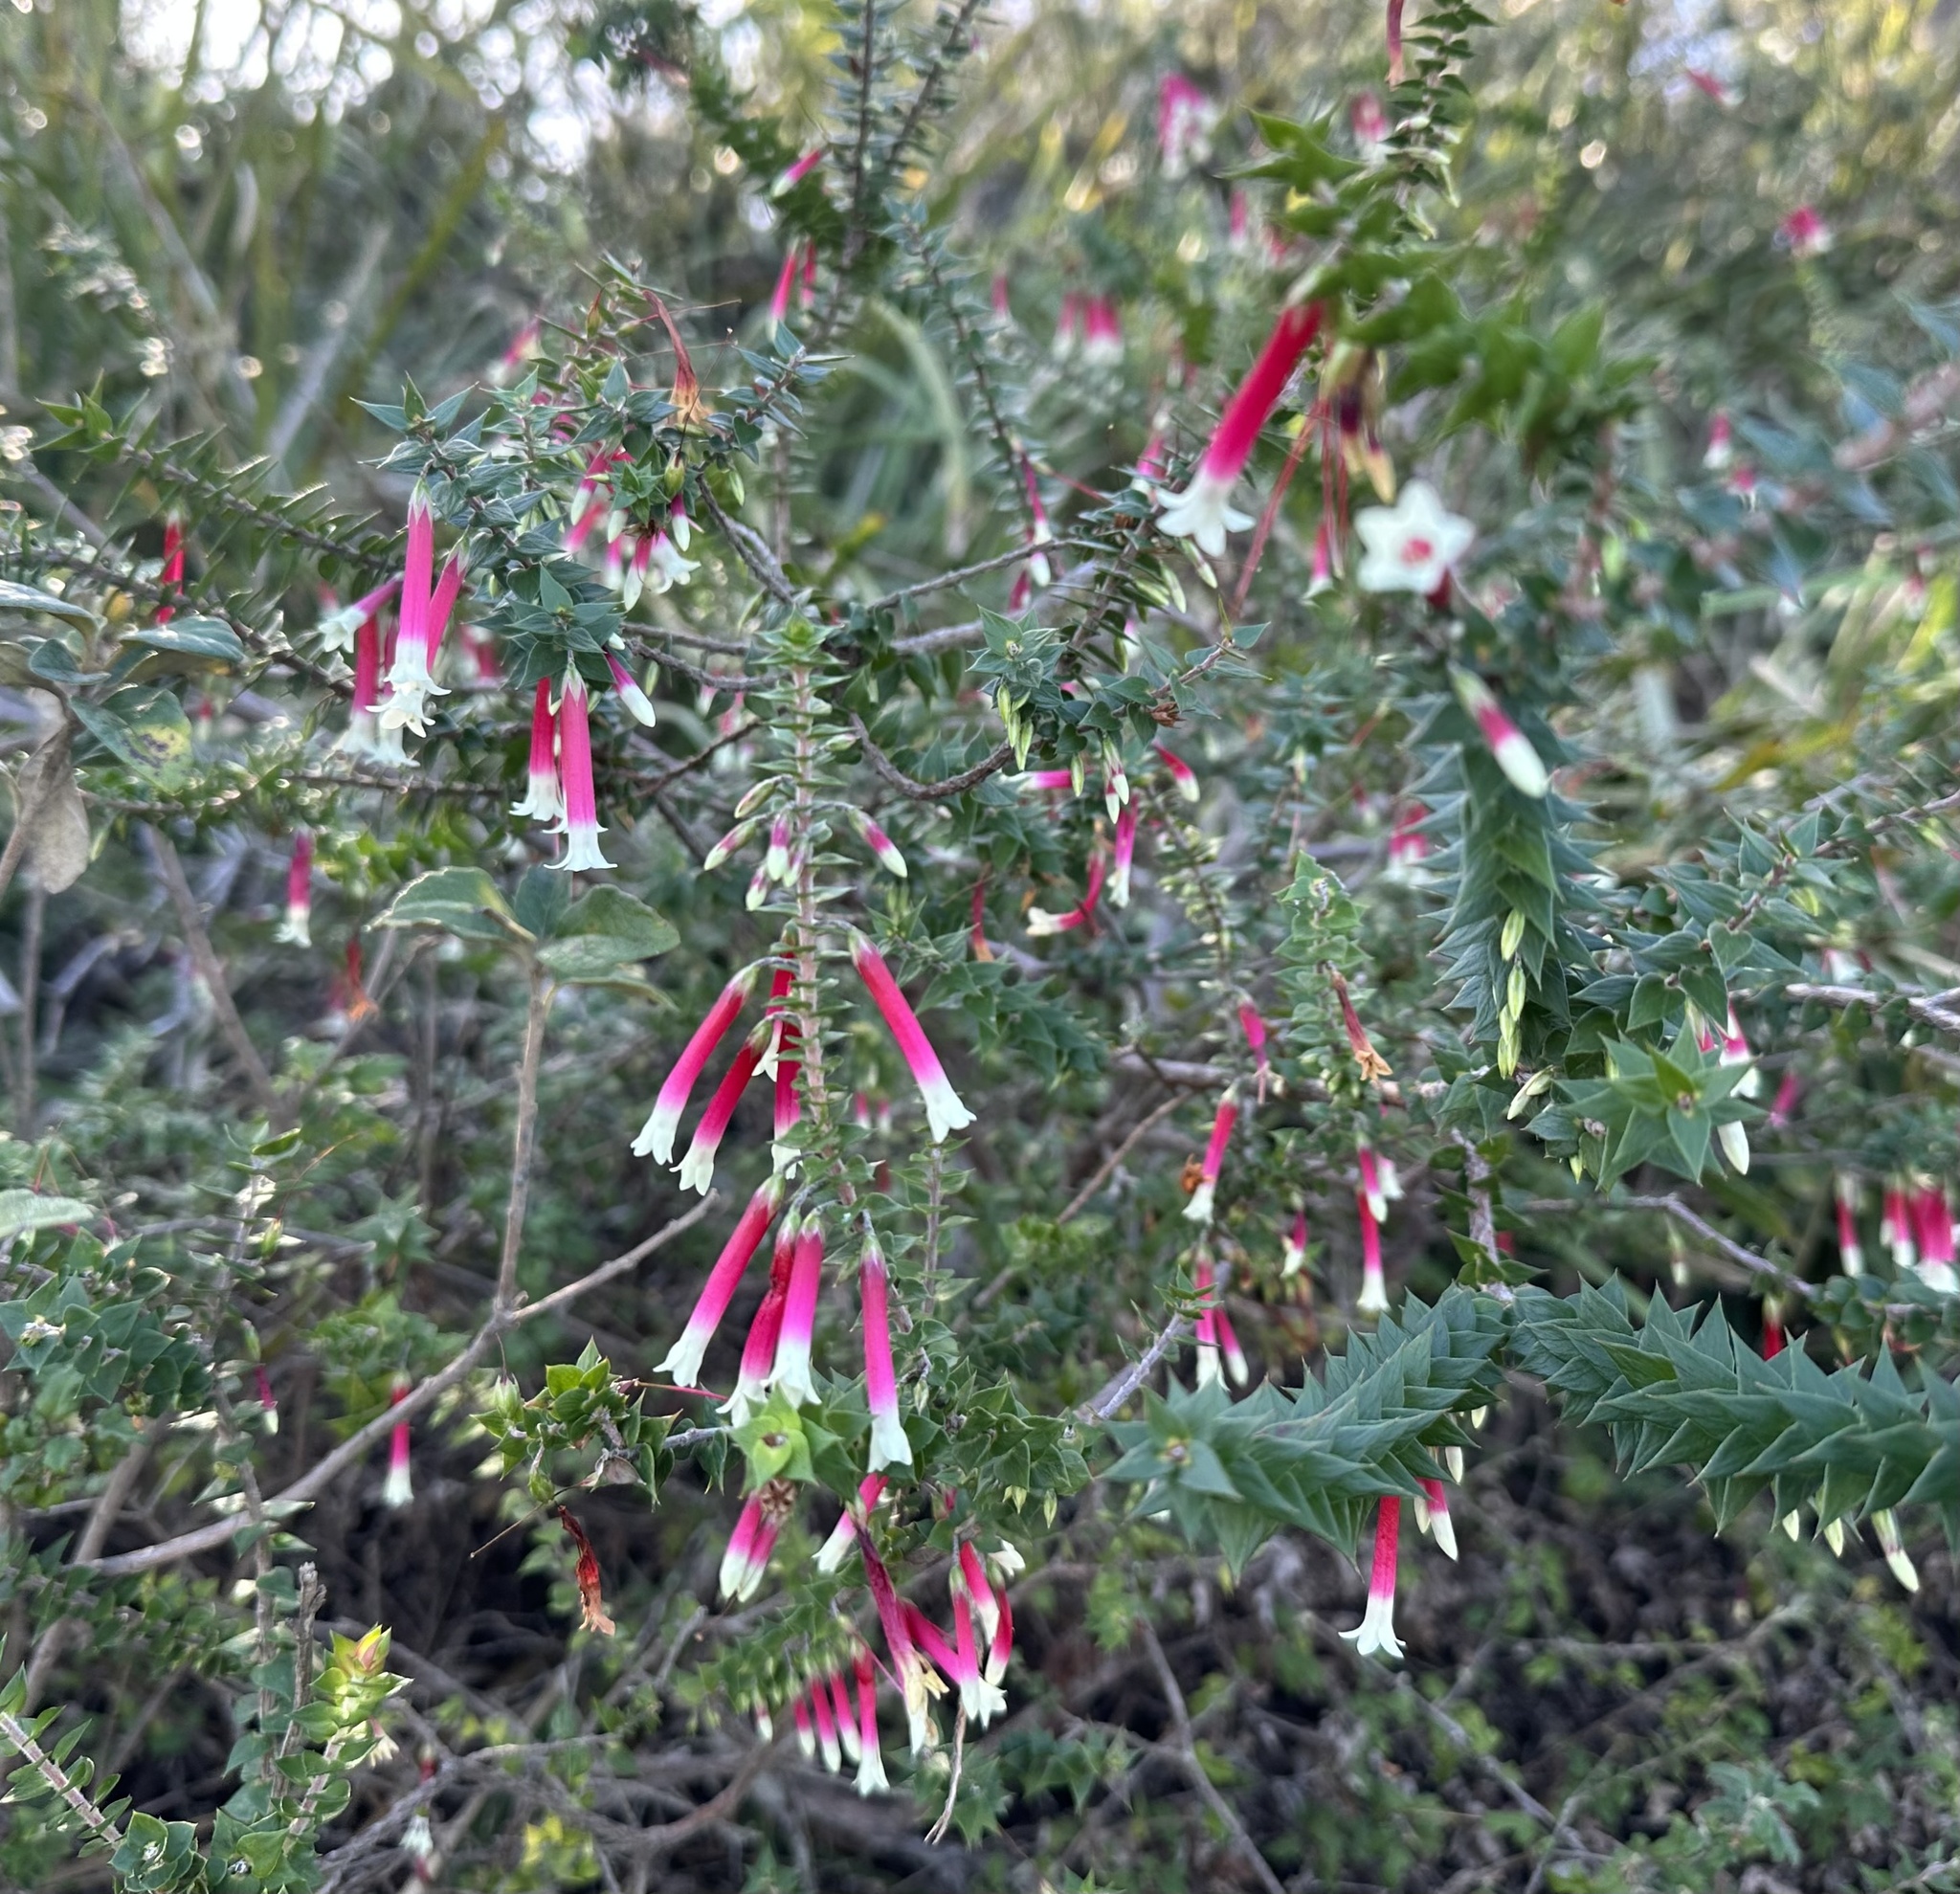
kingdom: Plantae
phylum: Tracheophyta
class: Magnoliopsida
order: Ericales
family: Ericaceae
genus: Epacris
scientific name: Epacris longiflora
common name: Fuchsia-heath
